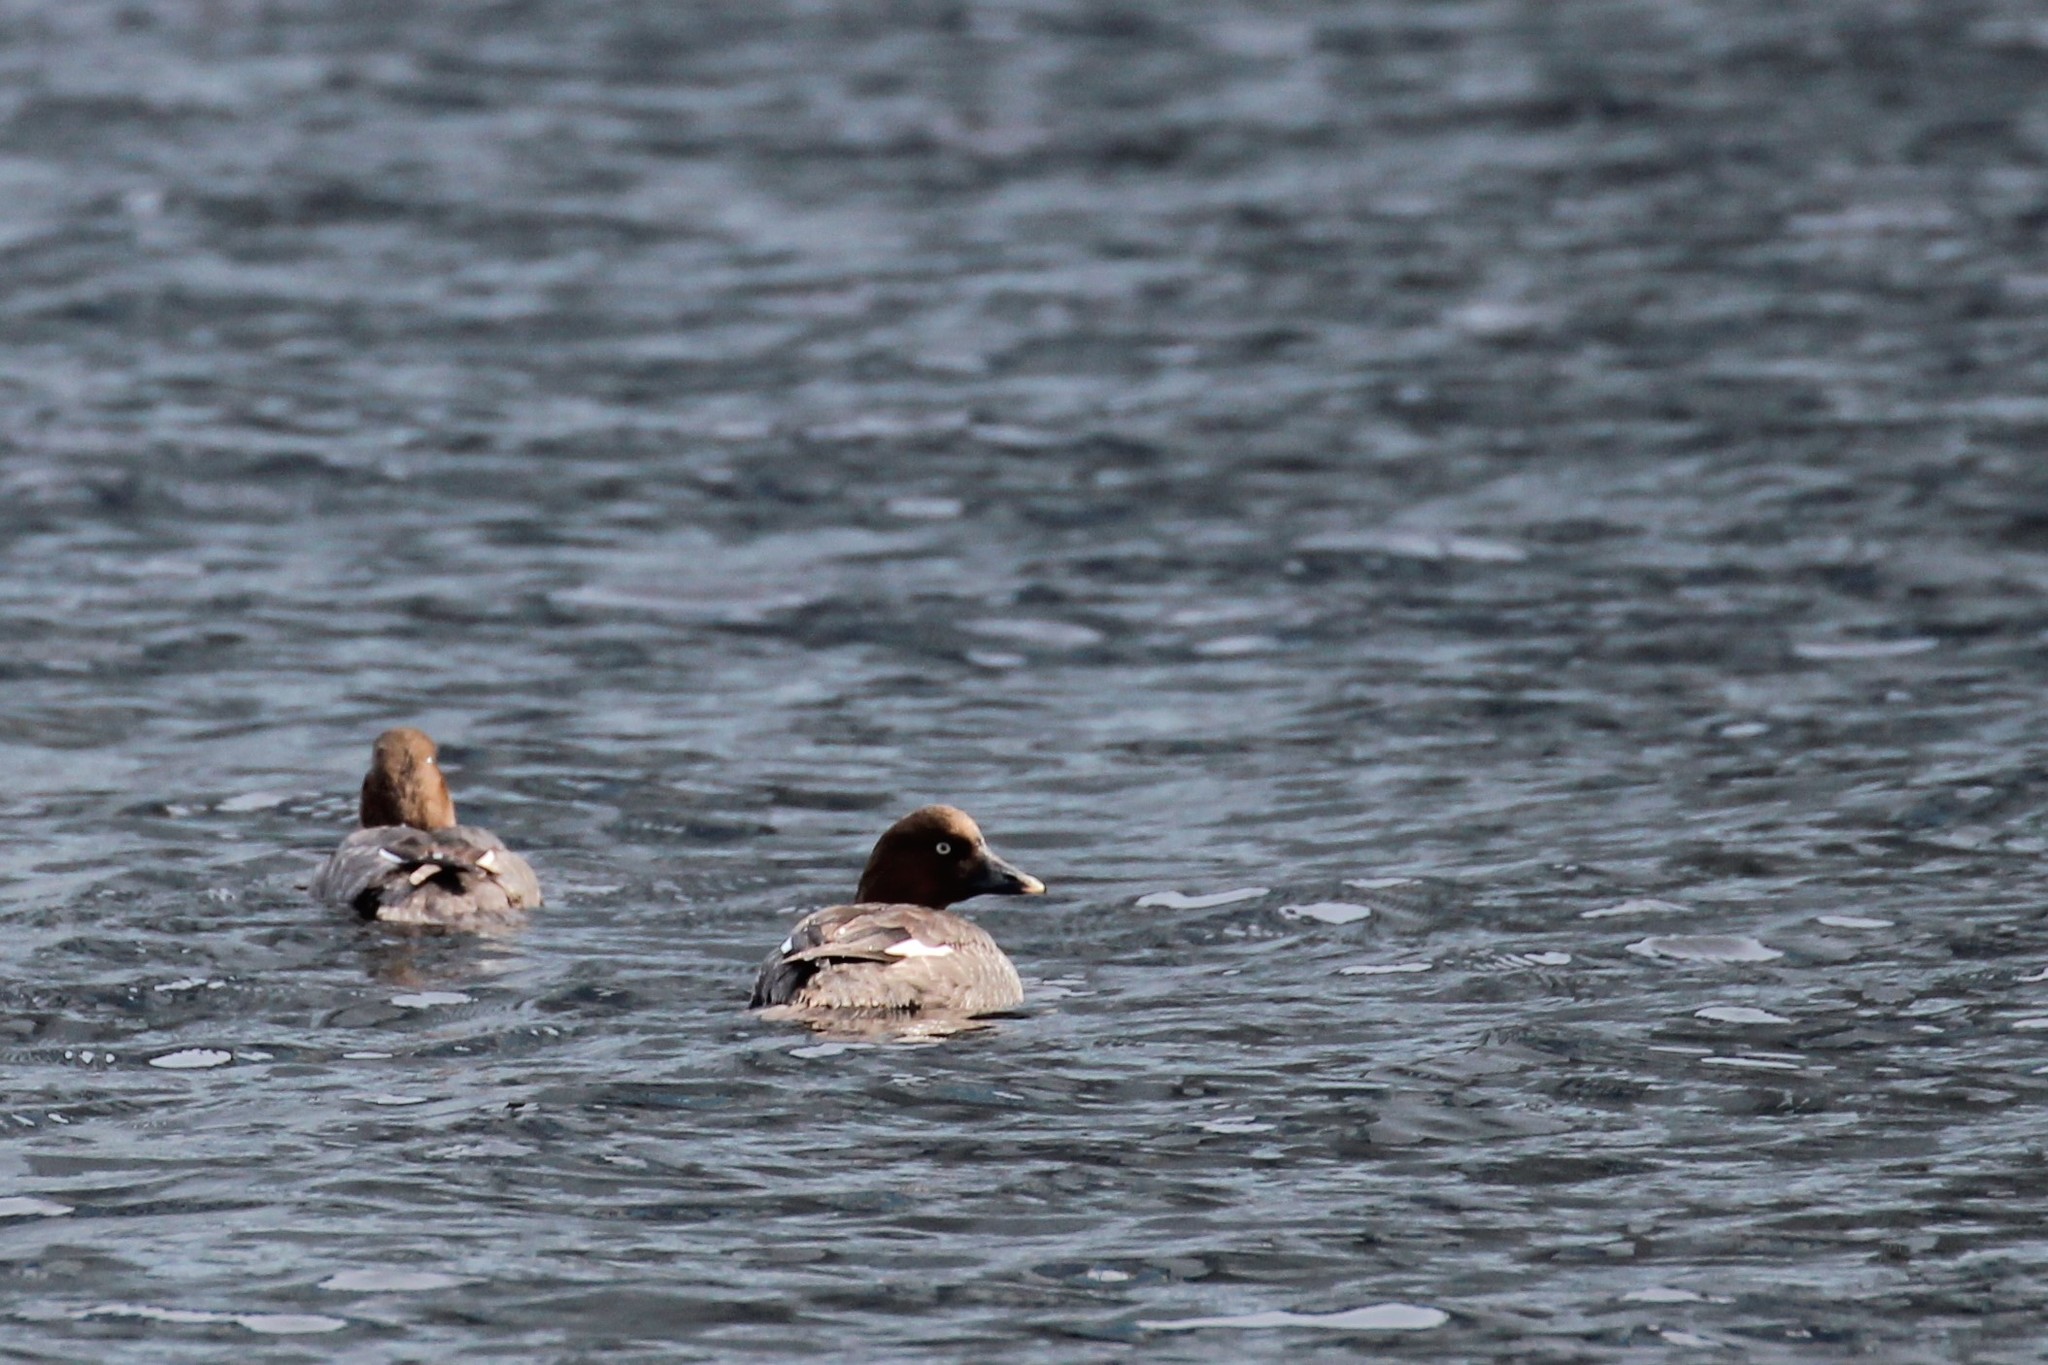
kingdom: Animalia
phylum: Chordata
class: Aves
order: Anseriformes
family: Anatidae
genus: Bucephala
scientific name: Bucephala clangula
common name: Common goldeneye
